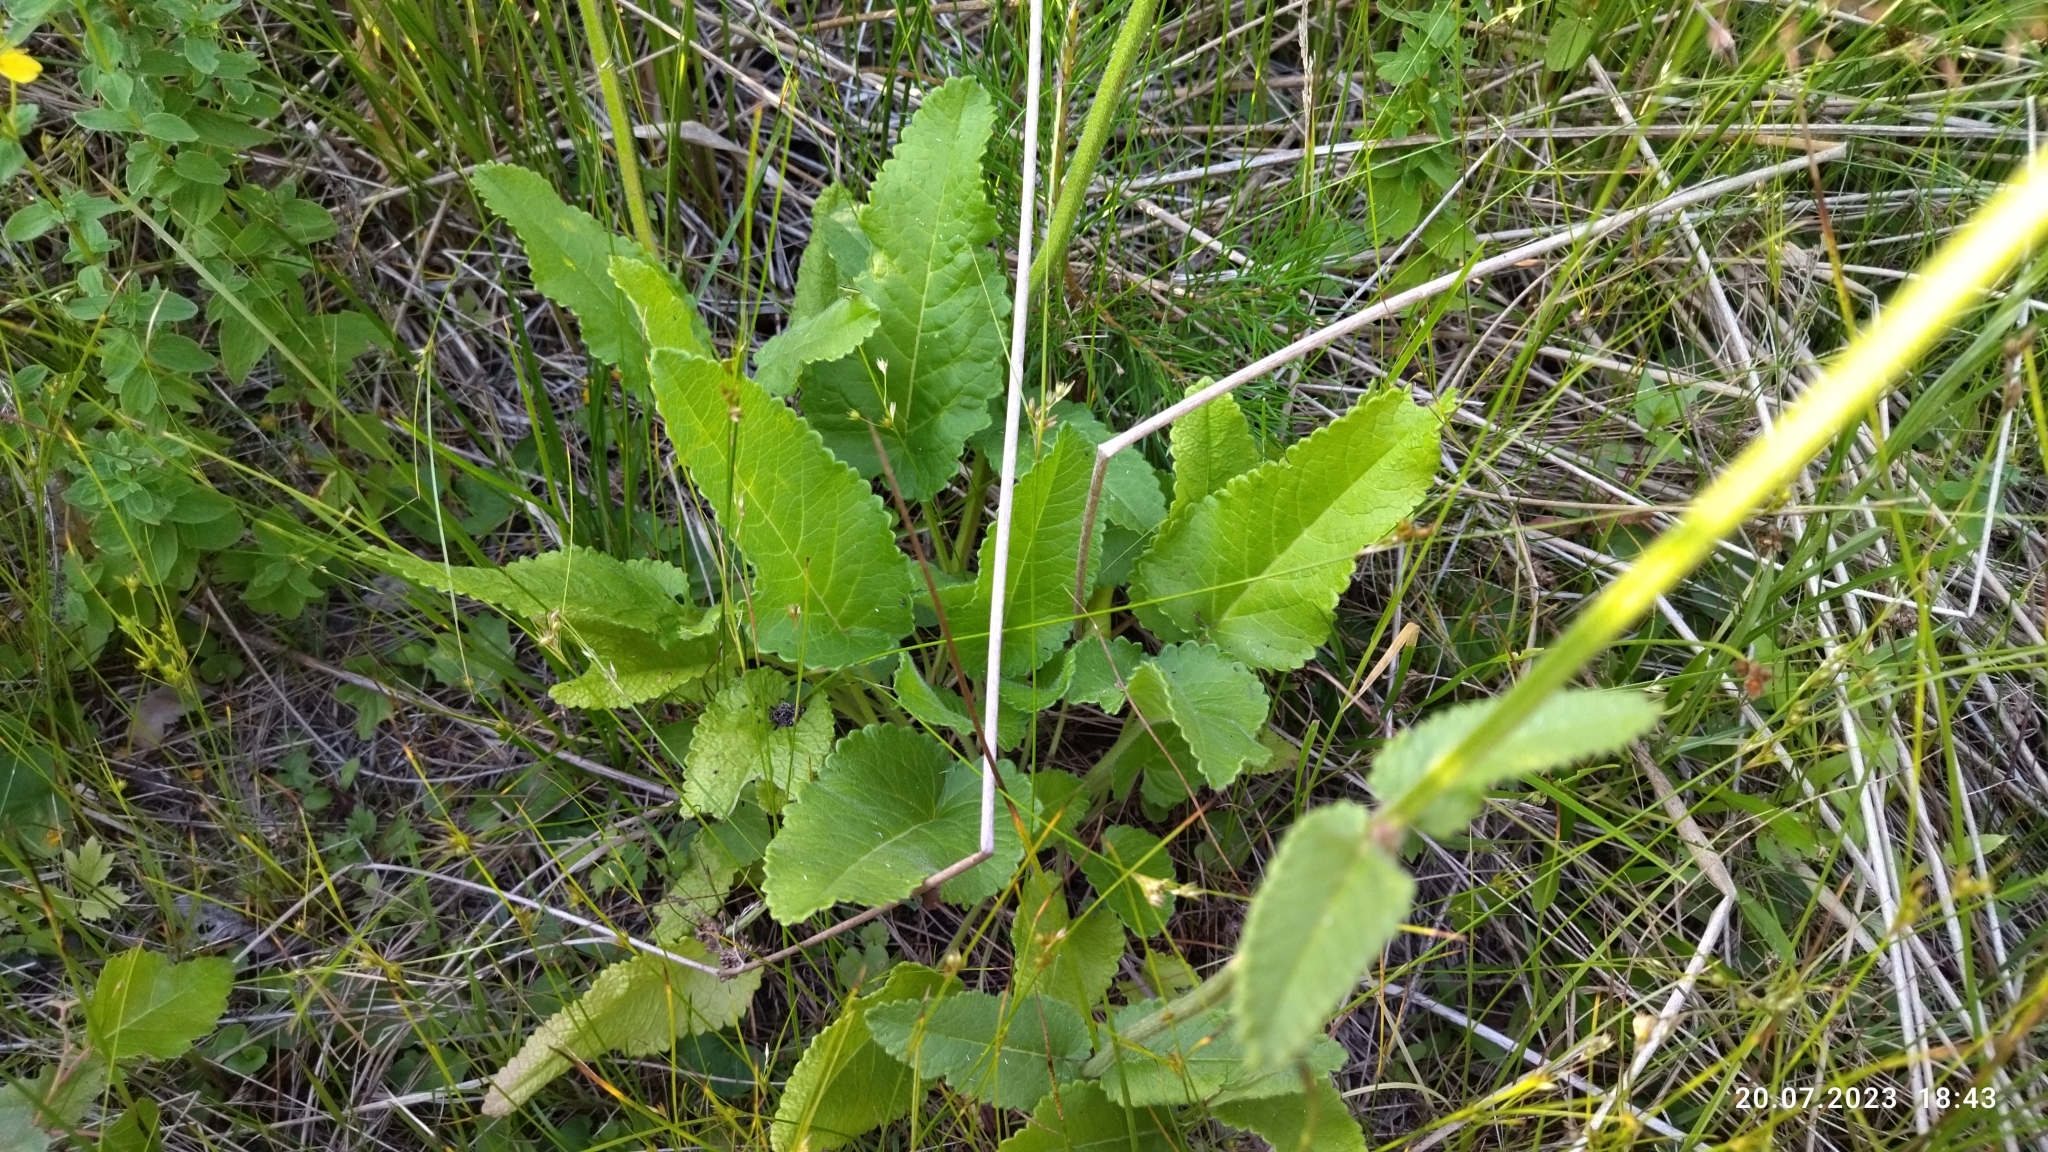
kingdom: Plantae
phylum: Tracheophyta
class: Magnoliopsida
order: Lamiales
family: Lamiaceae
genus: Betonica
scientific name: Betonica officinalis
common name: Bishop's-wort
